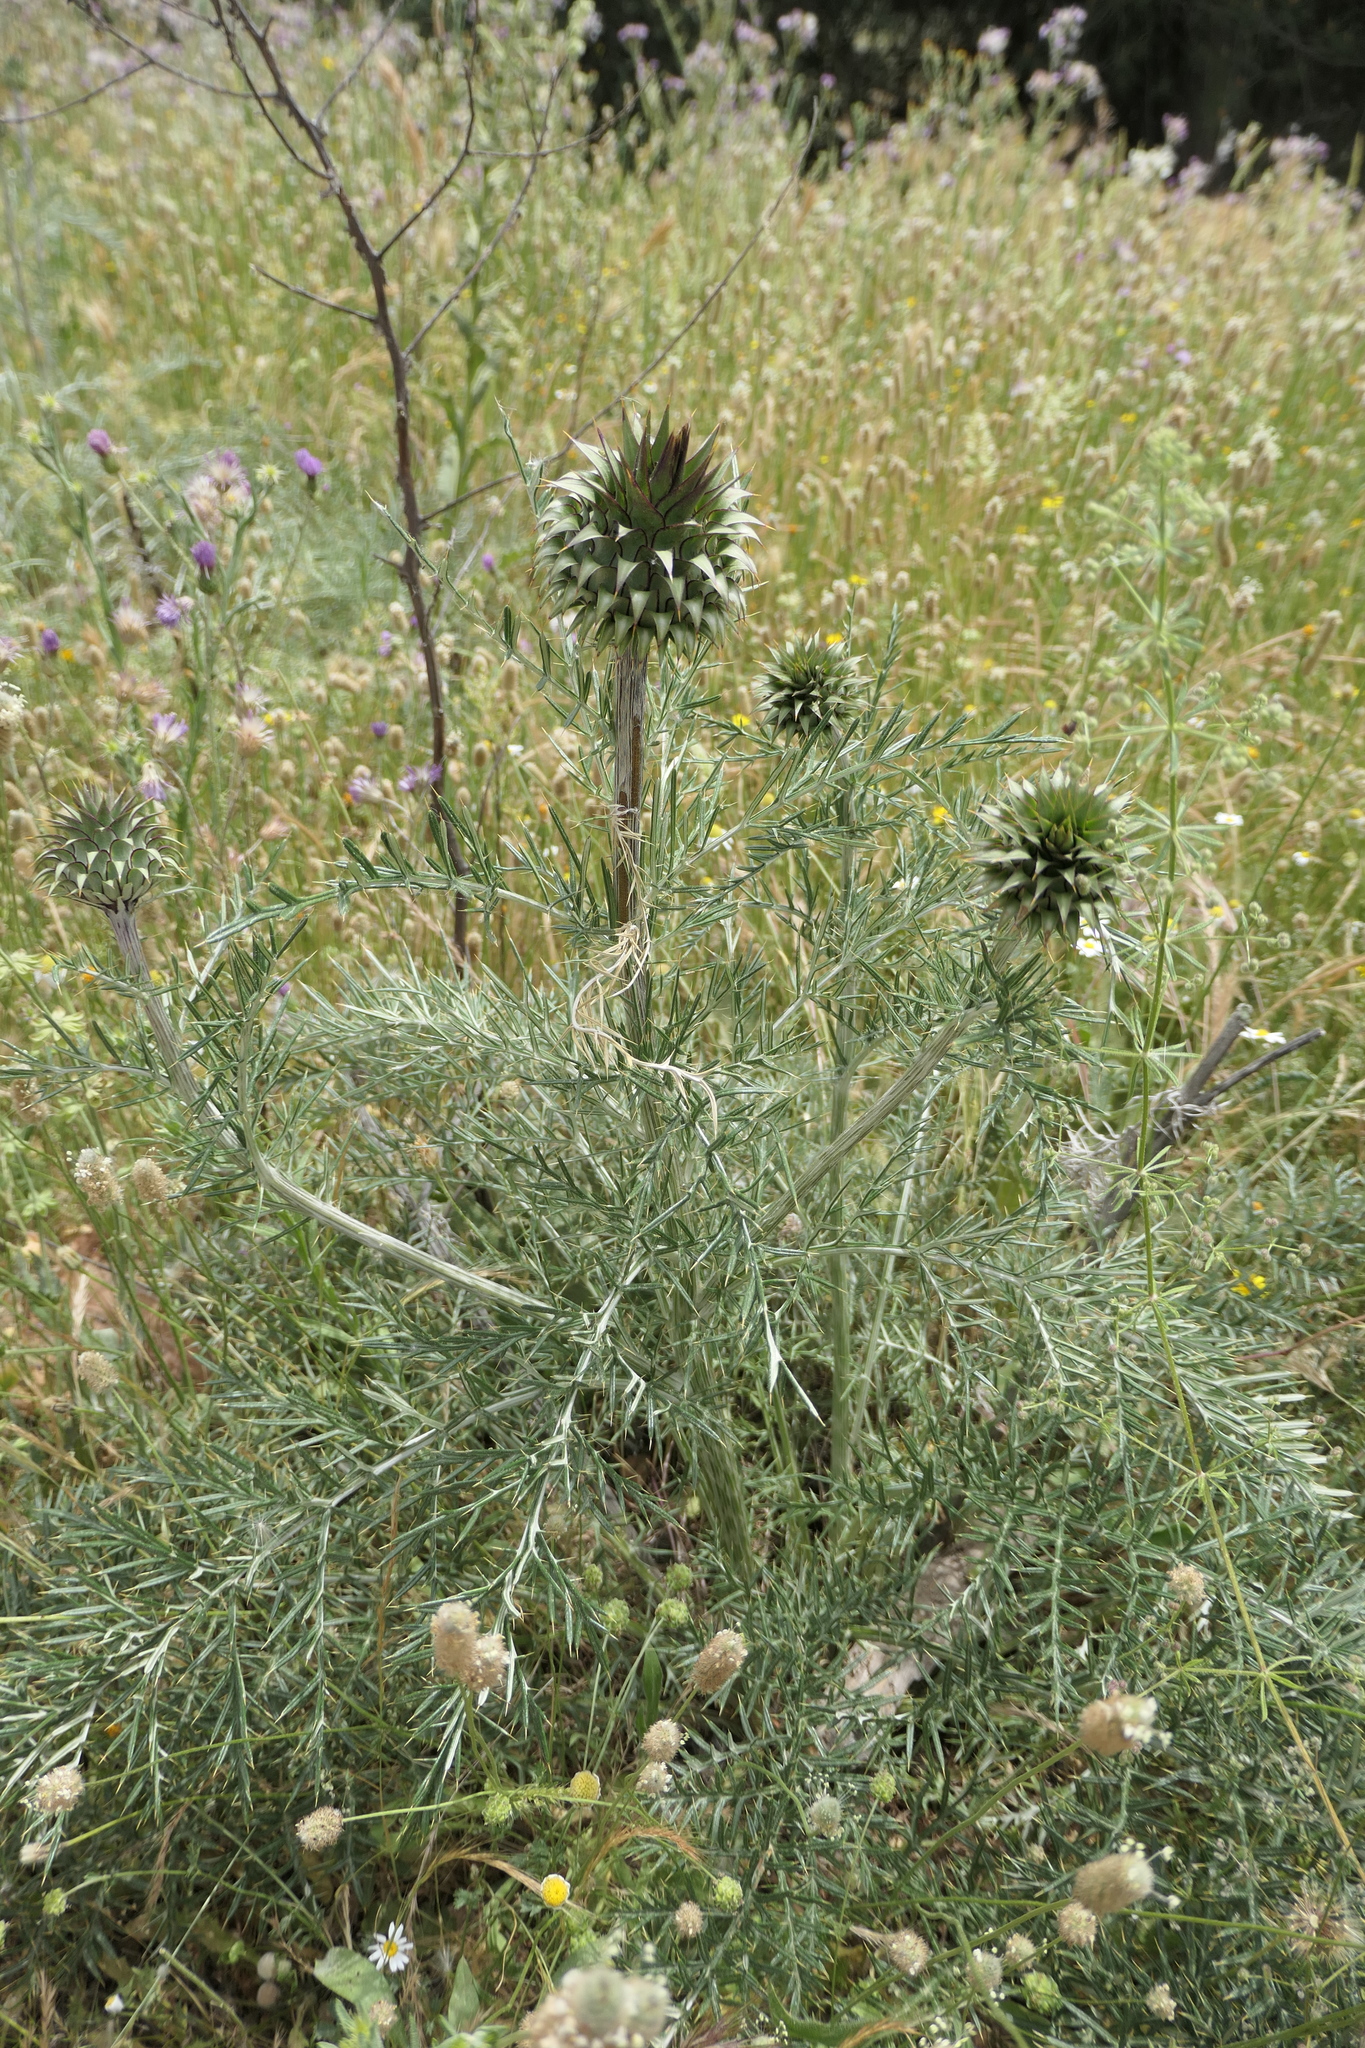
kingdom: Plantae
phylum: Tracheophyta
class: Magnoliopsida
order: Asterales
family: Asteraceae
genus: Cynara
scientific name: Cynara humilis
